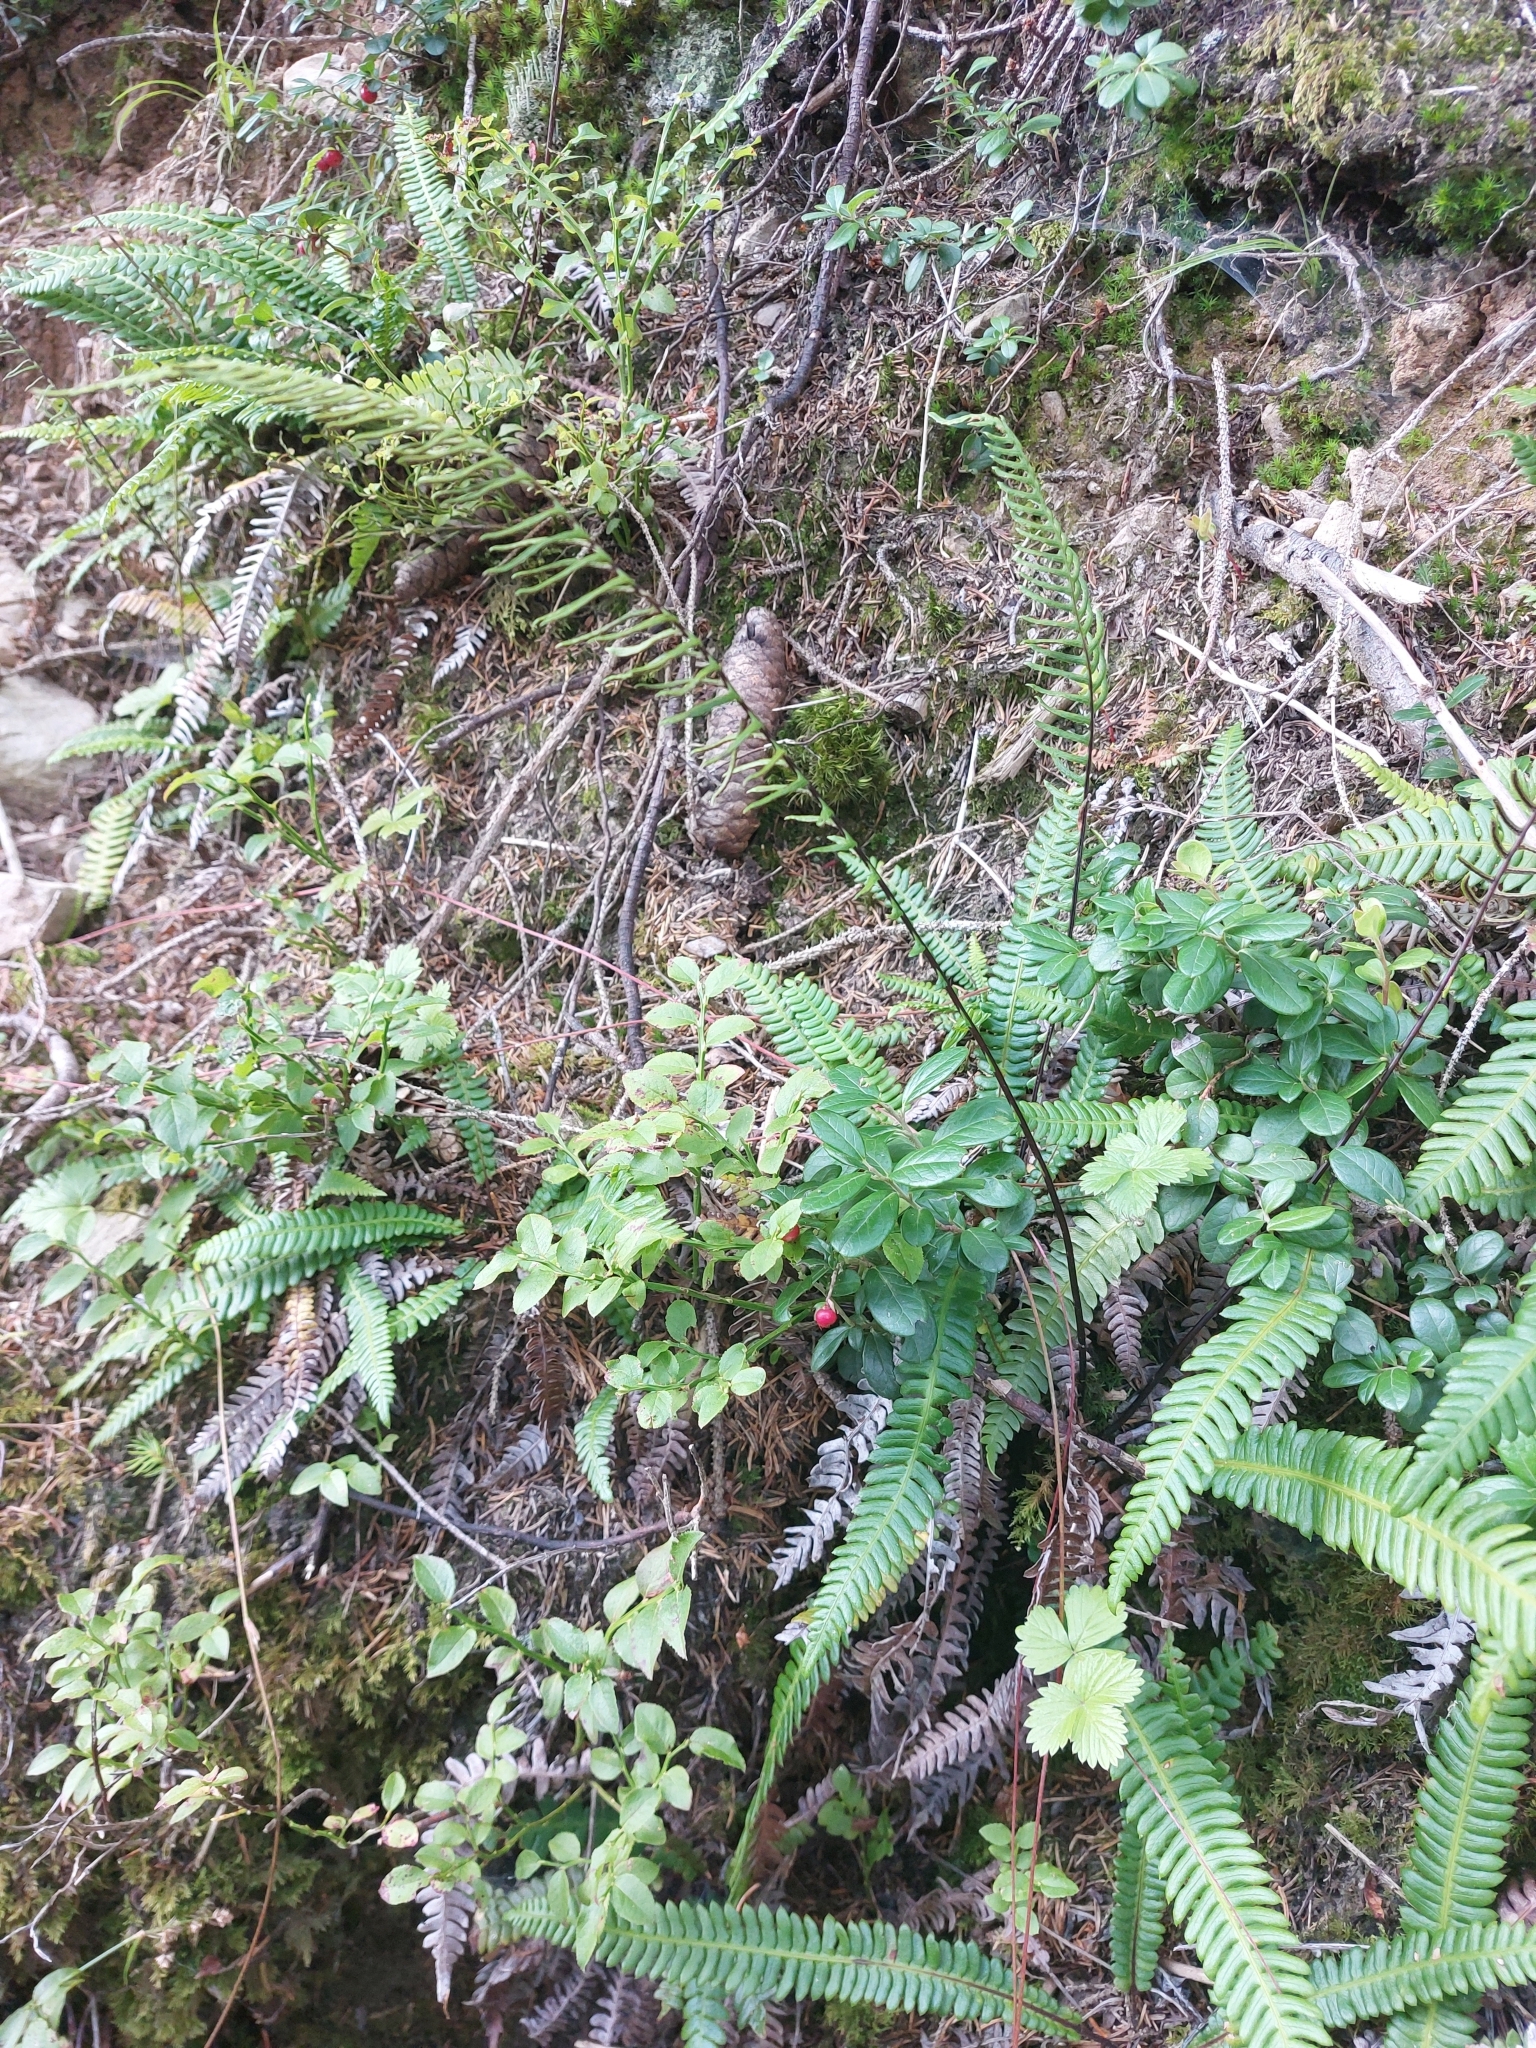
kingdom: Plantae
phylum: Tracheophyta
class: Polypodiopsida
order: Polypodiales
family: Blechnaceae
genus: Struthiopteris
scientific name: Struthiopteris spicant
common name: Deer fern
